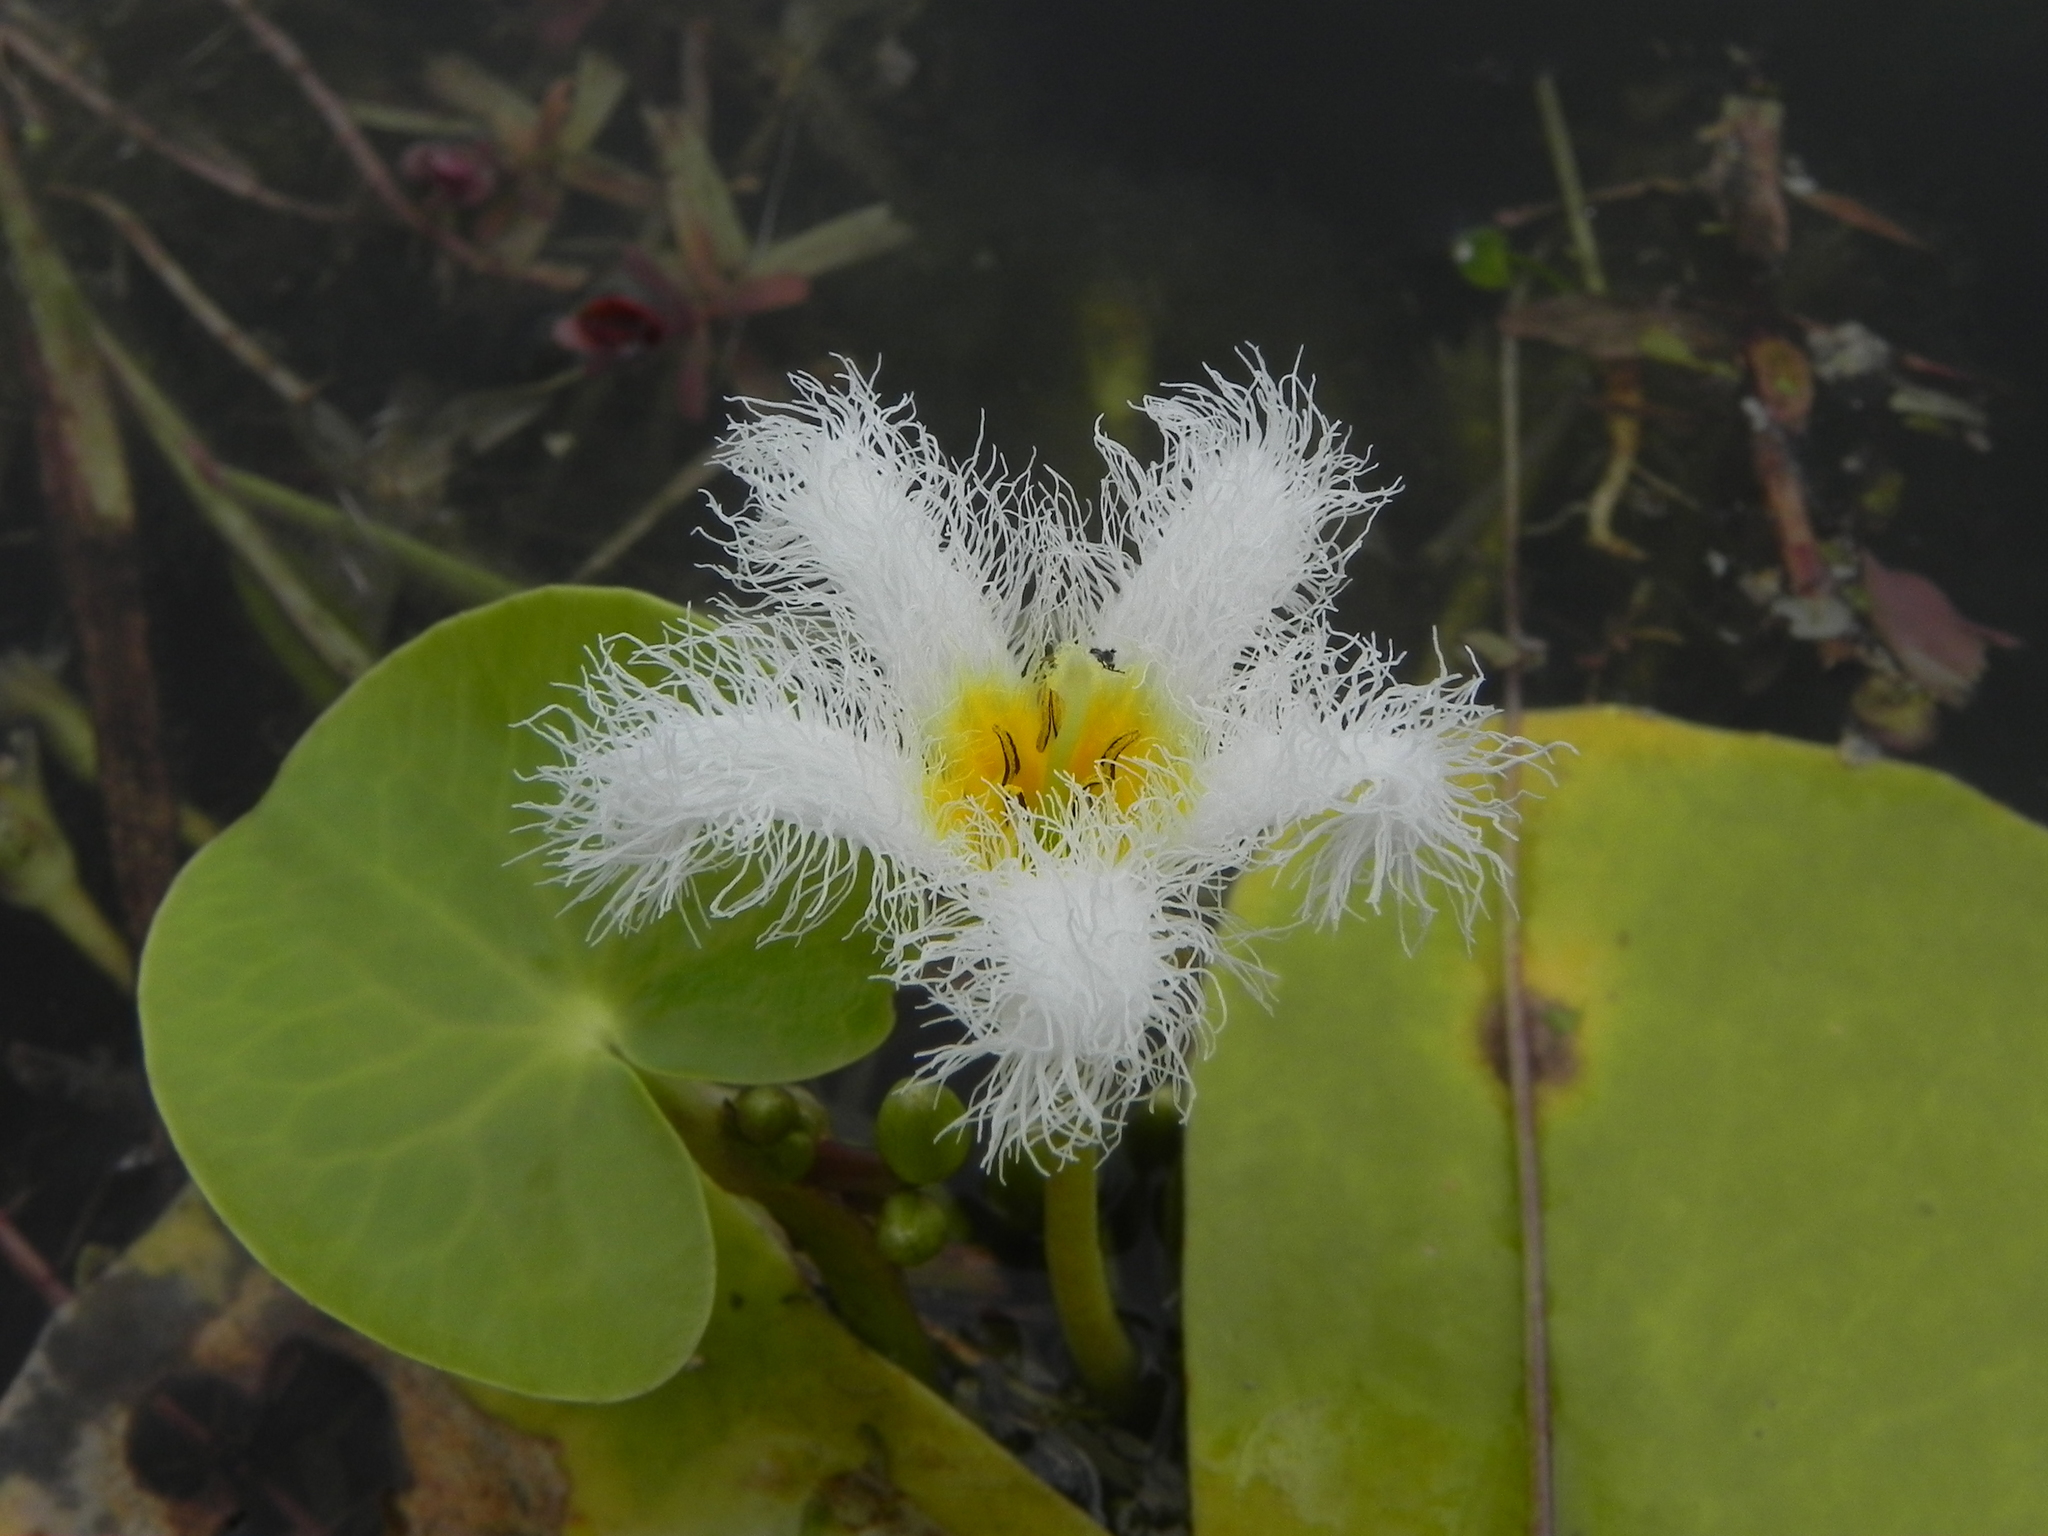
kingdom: Plantae
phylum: Tracheophyta
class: Magnoliopsida
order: Asterales
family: Menyanthaceae
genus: Nymphoides
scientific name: Nymphoides indica
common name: Water-snowflake
